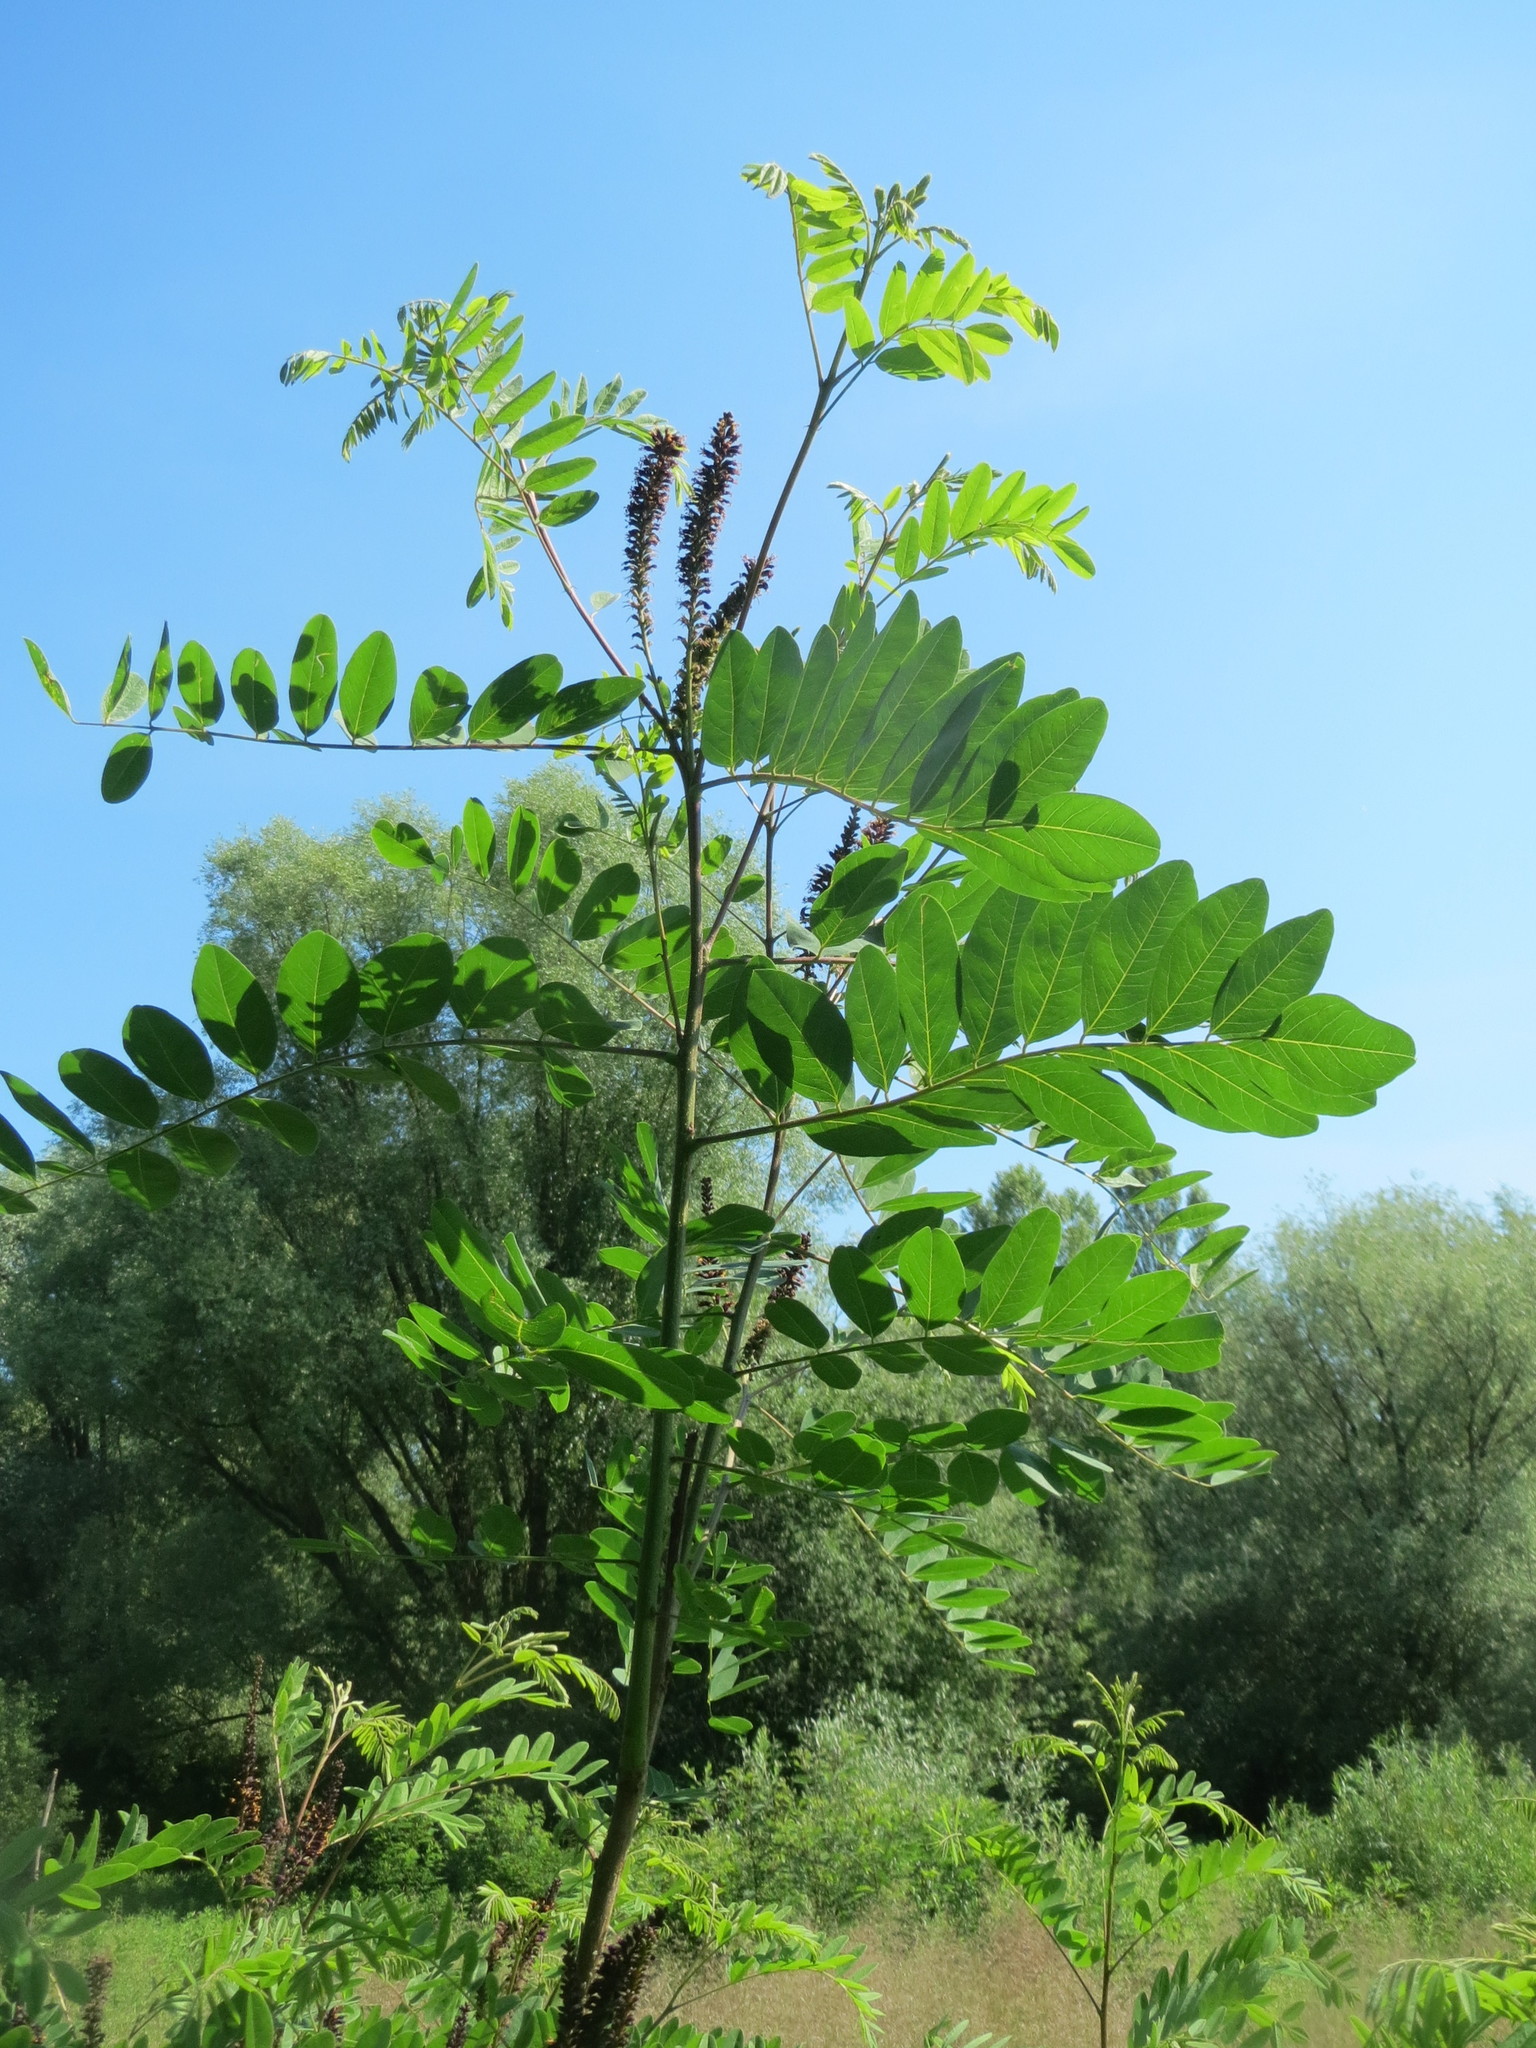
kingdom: Plantae
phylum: Tracheophyta
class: Magnoliopsida
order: Fabales
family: Fabaceae
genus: Amorpha
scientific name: Amorpha fruticosa
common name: False indigo
